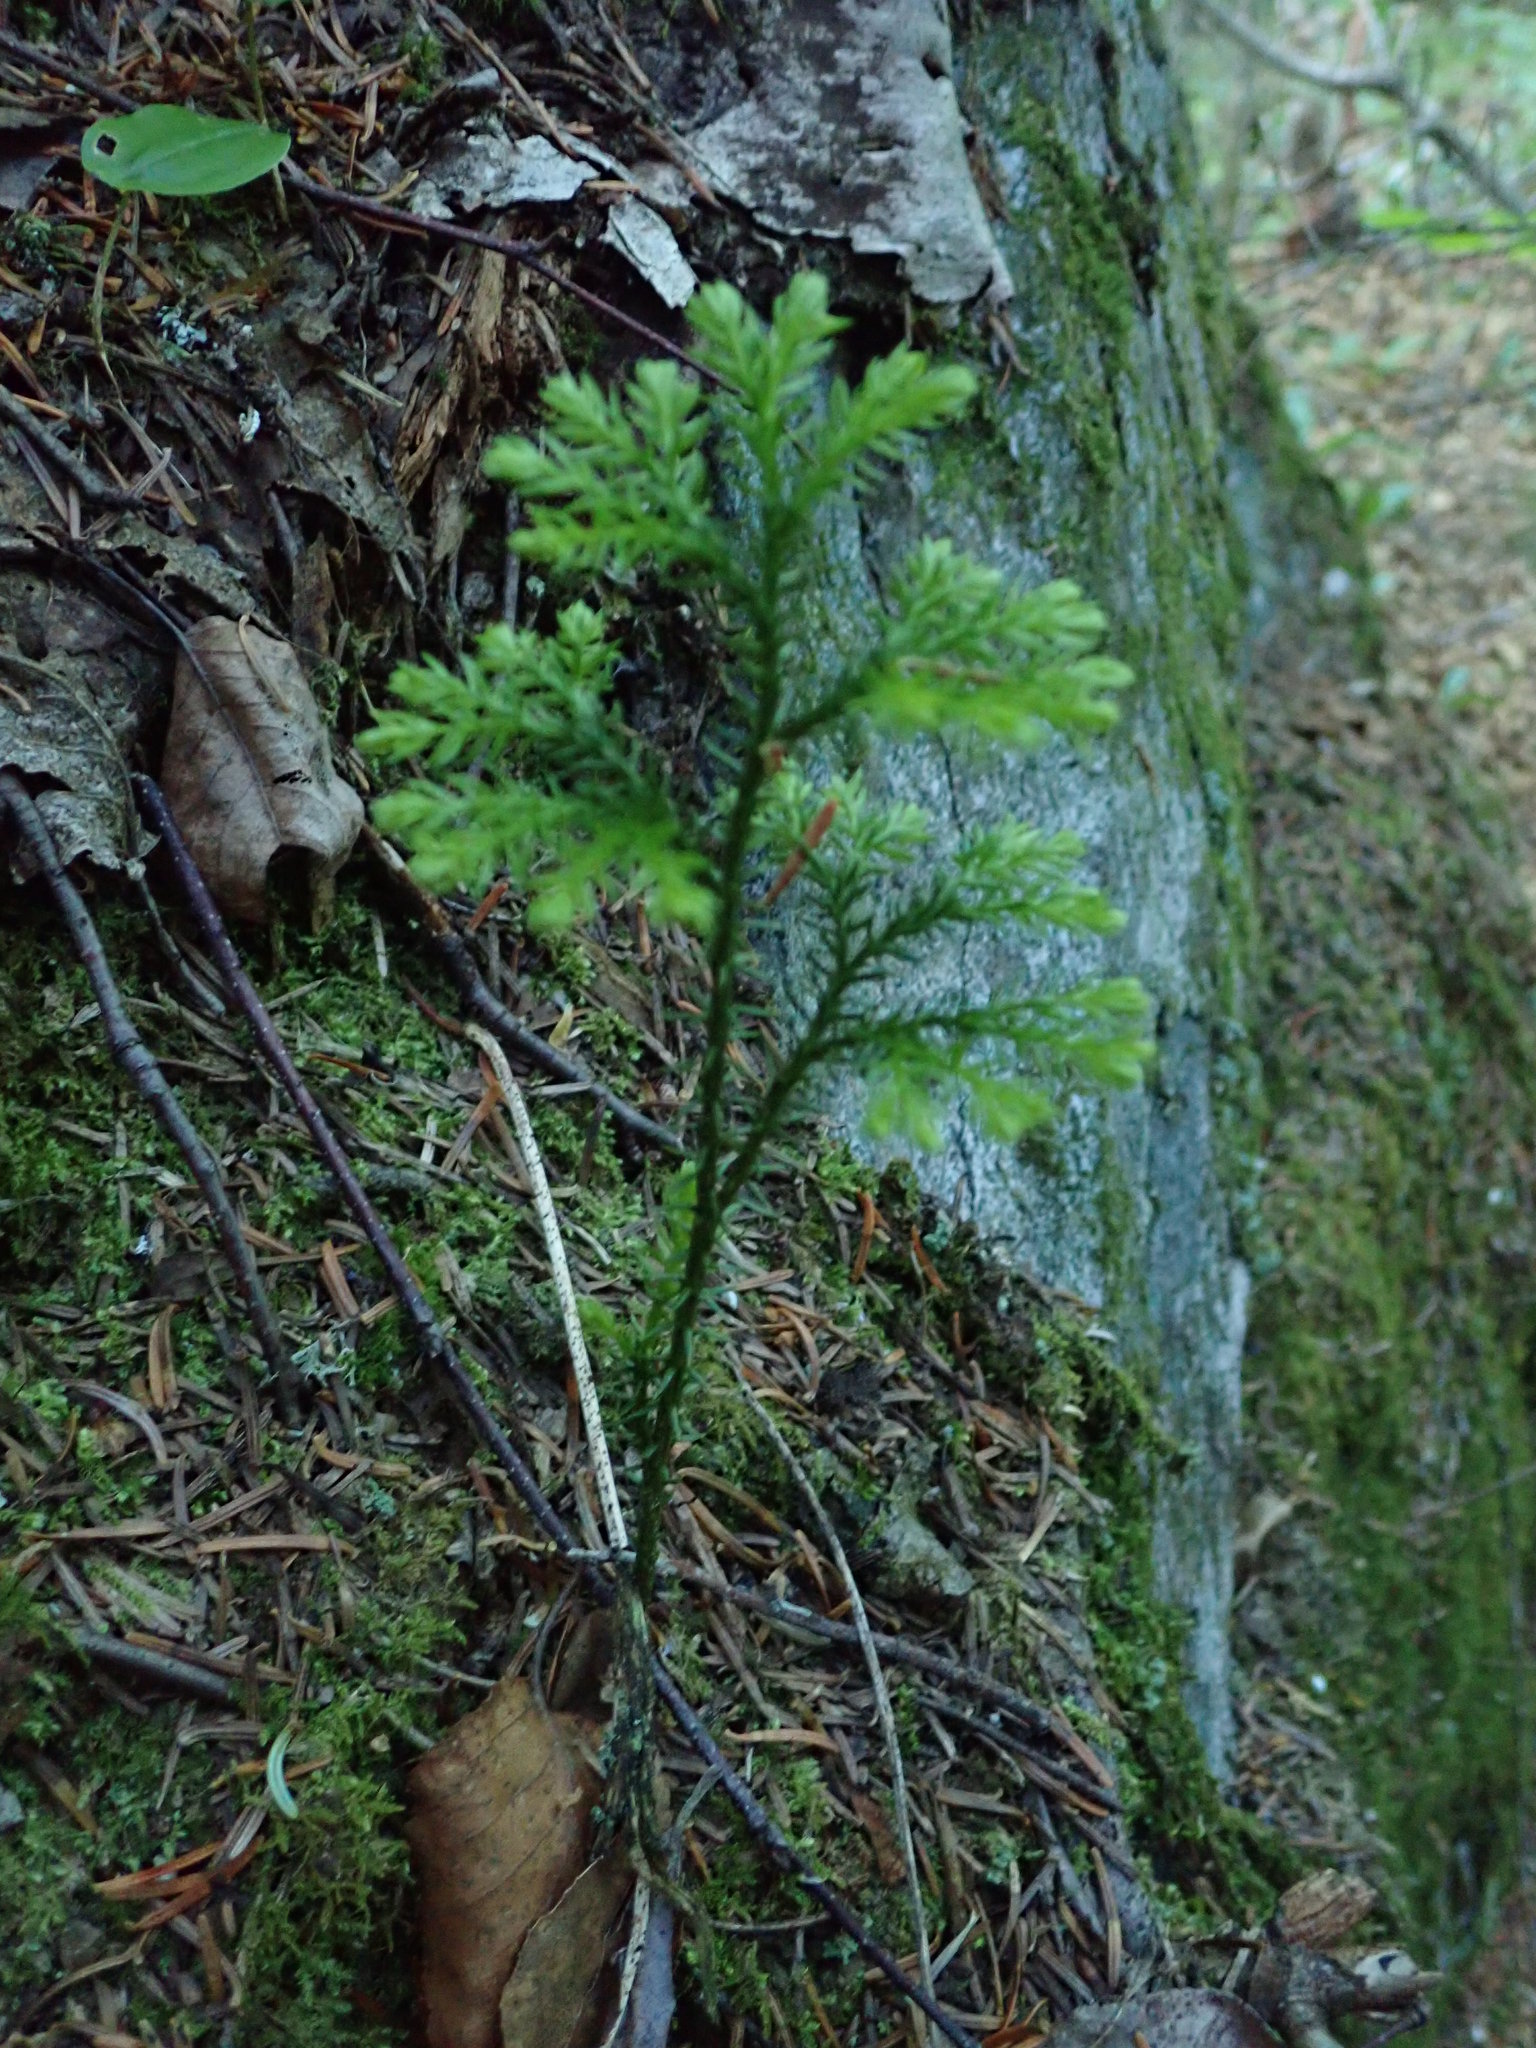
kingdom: Plantae
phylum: Tracheophyta
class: Lycopodiopsida
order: Lycopodiales
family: Lycopodiaceae
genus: Dendrolycopodium
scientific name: Dendrolycopodium dendroideum
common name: Northern tree-clubmoss
